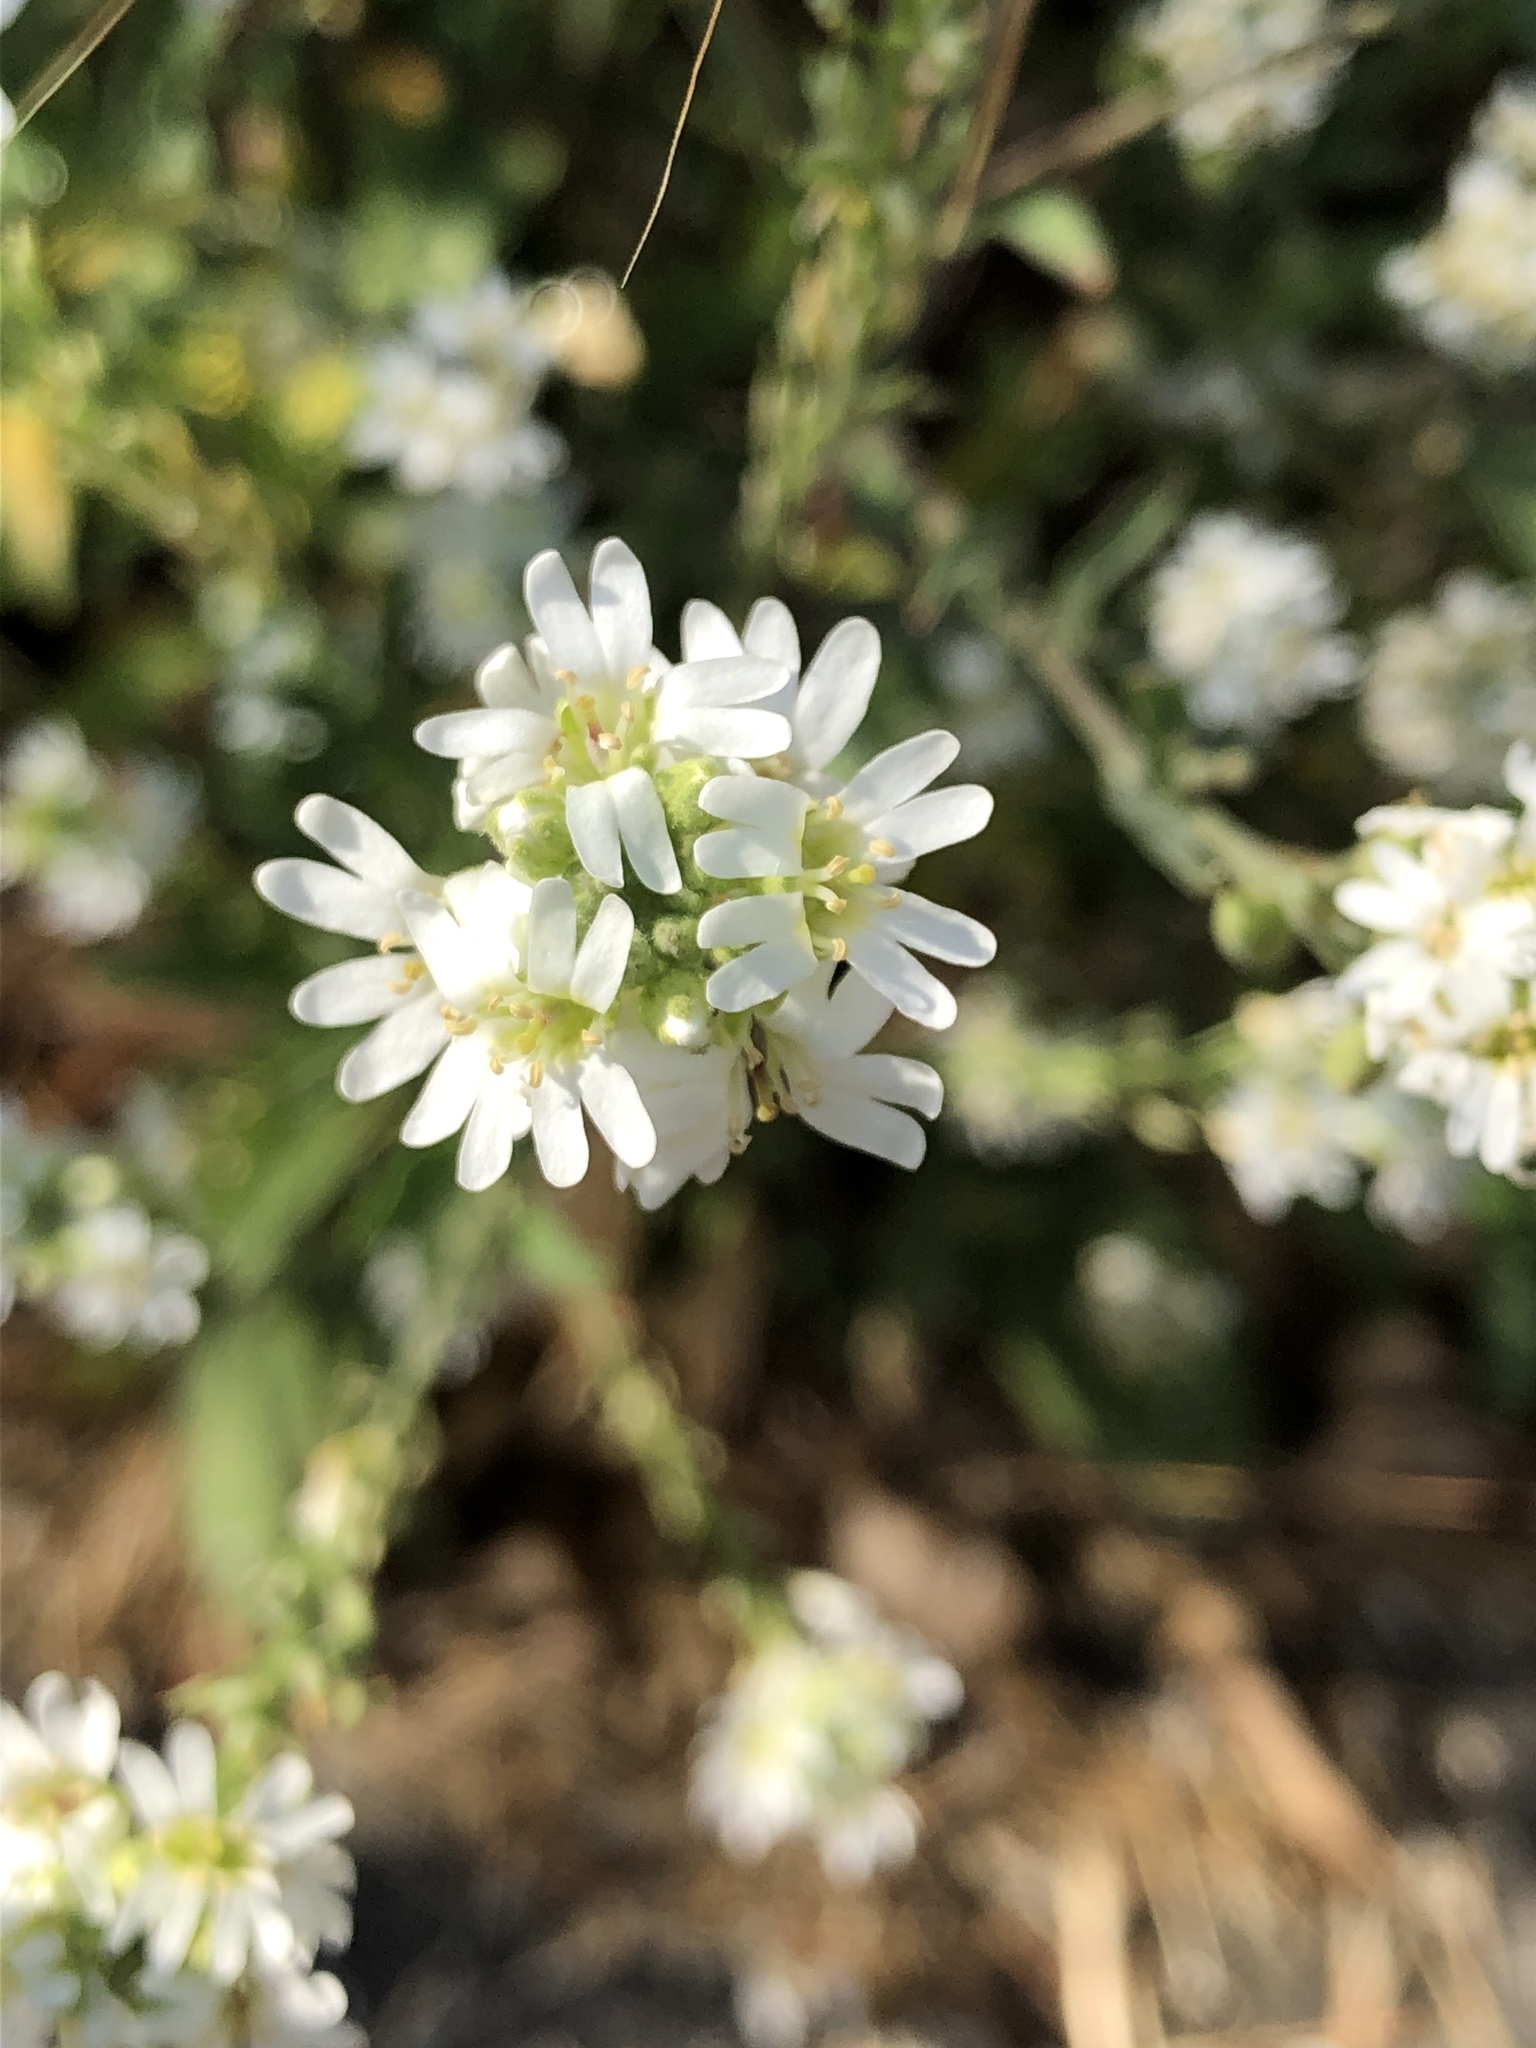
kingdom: Plantae
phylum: Tracheophyta
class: Magnoliopsida
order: Brassicales
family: Brassicaceae
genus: Berteroa
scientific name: Berteroa incana
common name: Hoary alison
